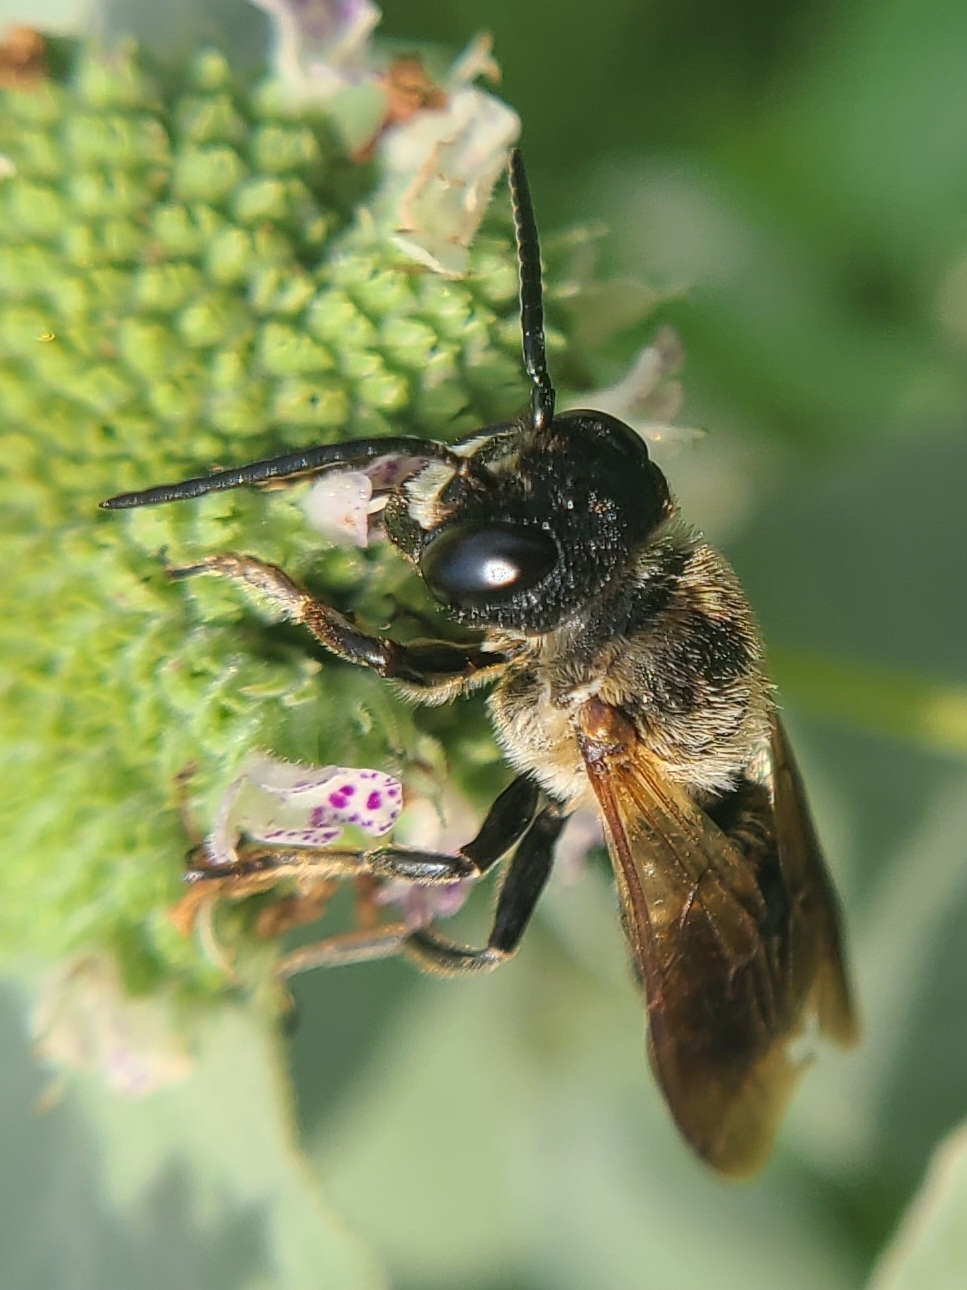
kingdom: Animalia
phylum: Arthropoda
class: Insecta
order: Hymenoptera
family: Megachilidae
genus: Megachile
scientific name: Megachile sculpturalis
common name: Sculptured resin bee
